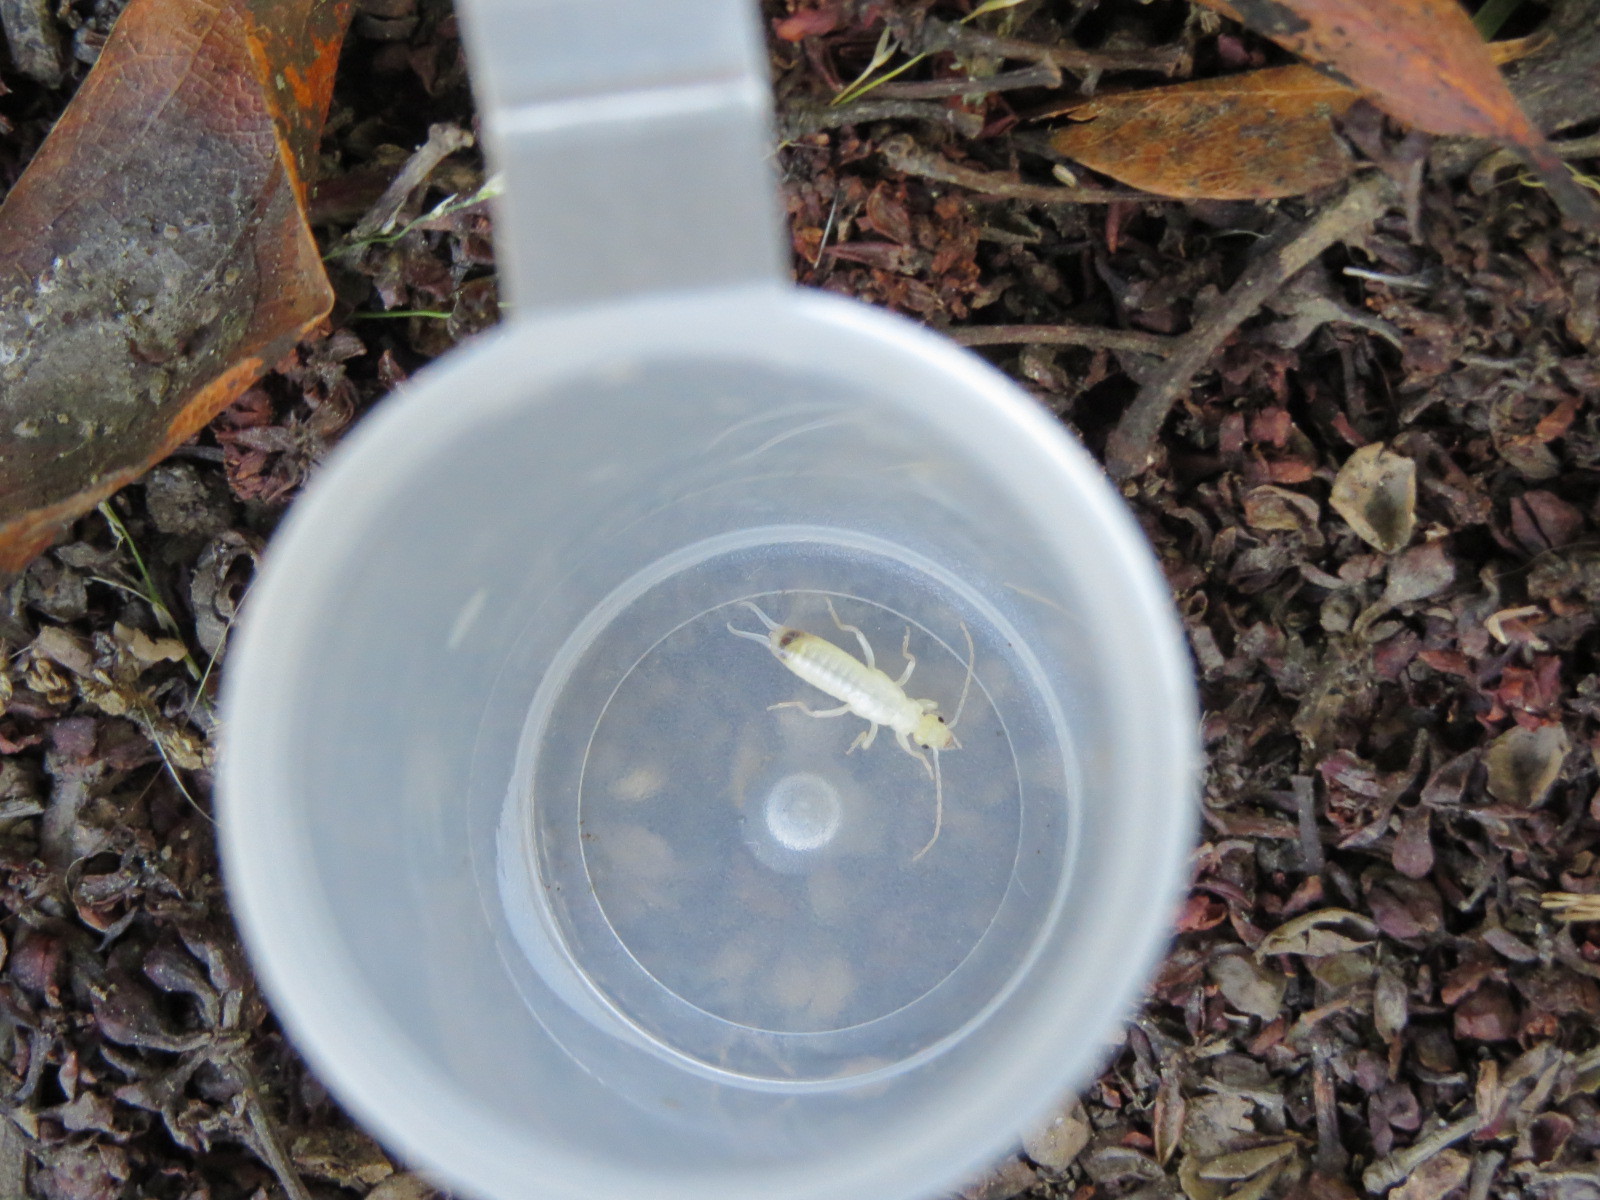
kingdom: Animalia
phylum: Arthropoda
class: Insecta
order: Dermaptera
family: Forficulidae
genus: Forficula
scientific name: Forficula
